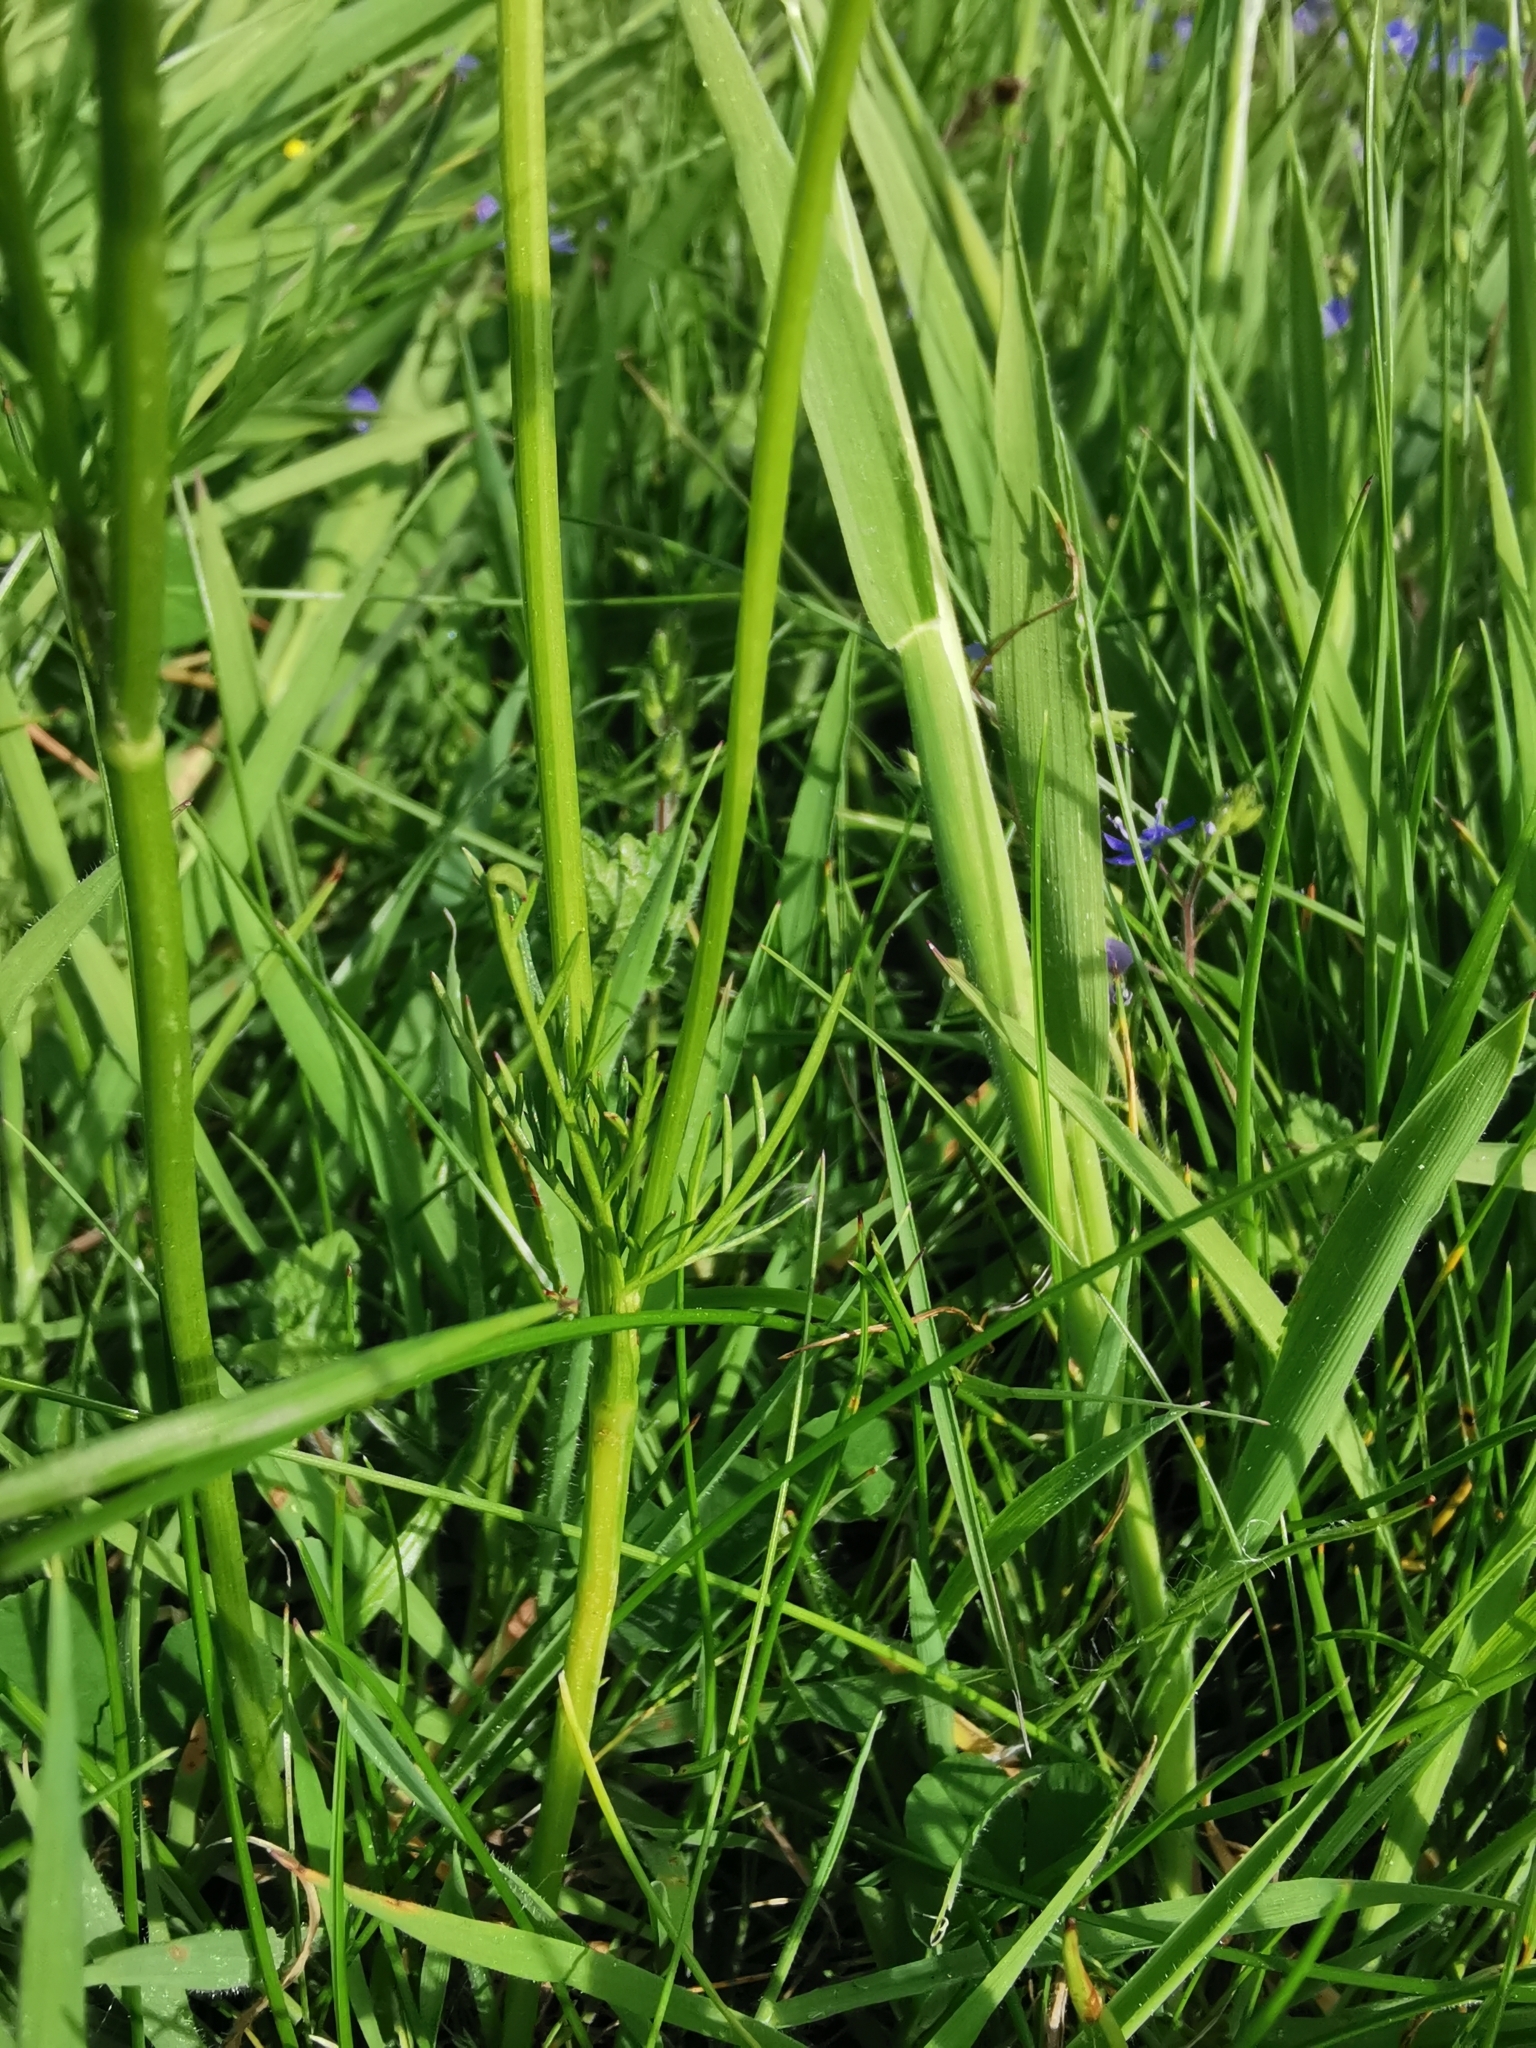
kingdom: Plantae
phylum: Tracheophyta
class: Magnoliopsida
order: Apiales
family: Apiaceae
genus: Conopodium
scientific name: Conopodium majus
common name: Pignut
